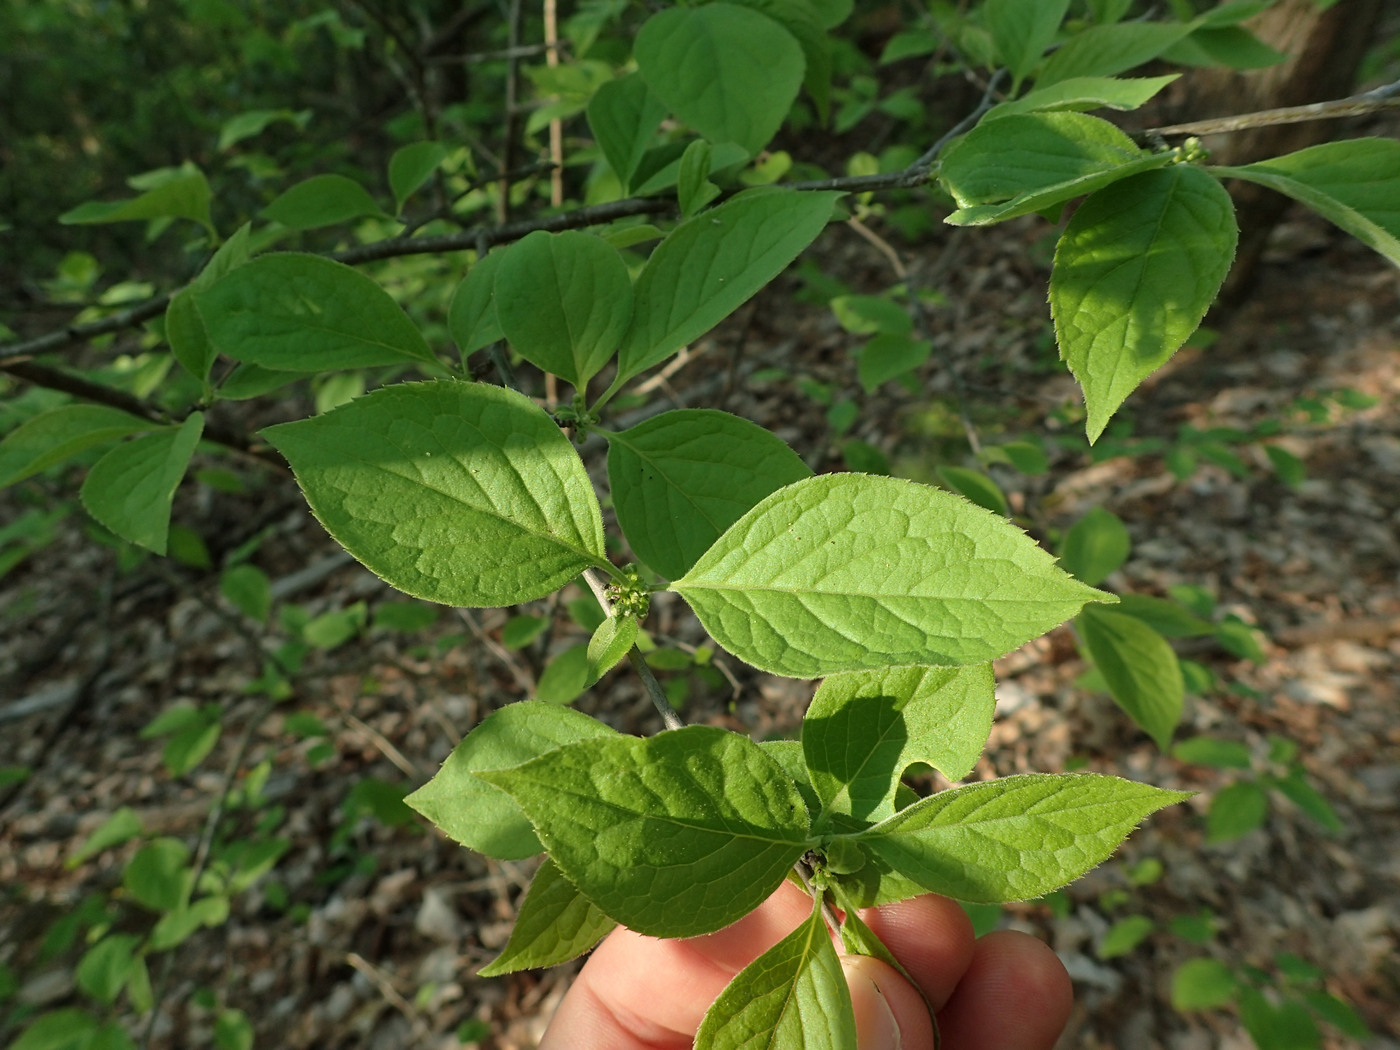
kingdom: Plantae
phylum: Tracheophyta
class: Magnoliopsida
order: Aquifoliales
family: Aquifoliaceae
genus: Ilex
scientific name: Ilex montana
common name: Mountain winterberry
